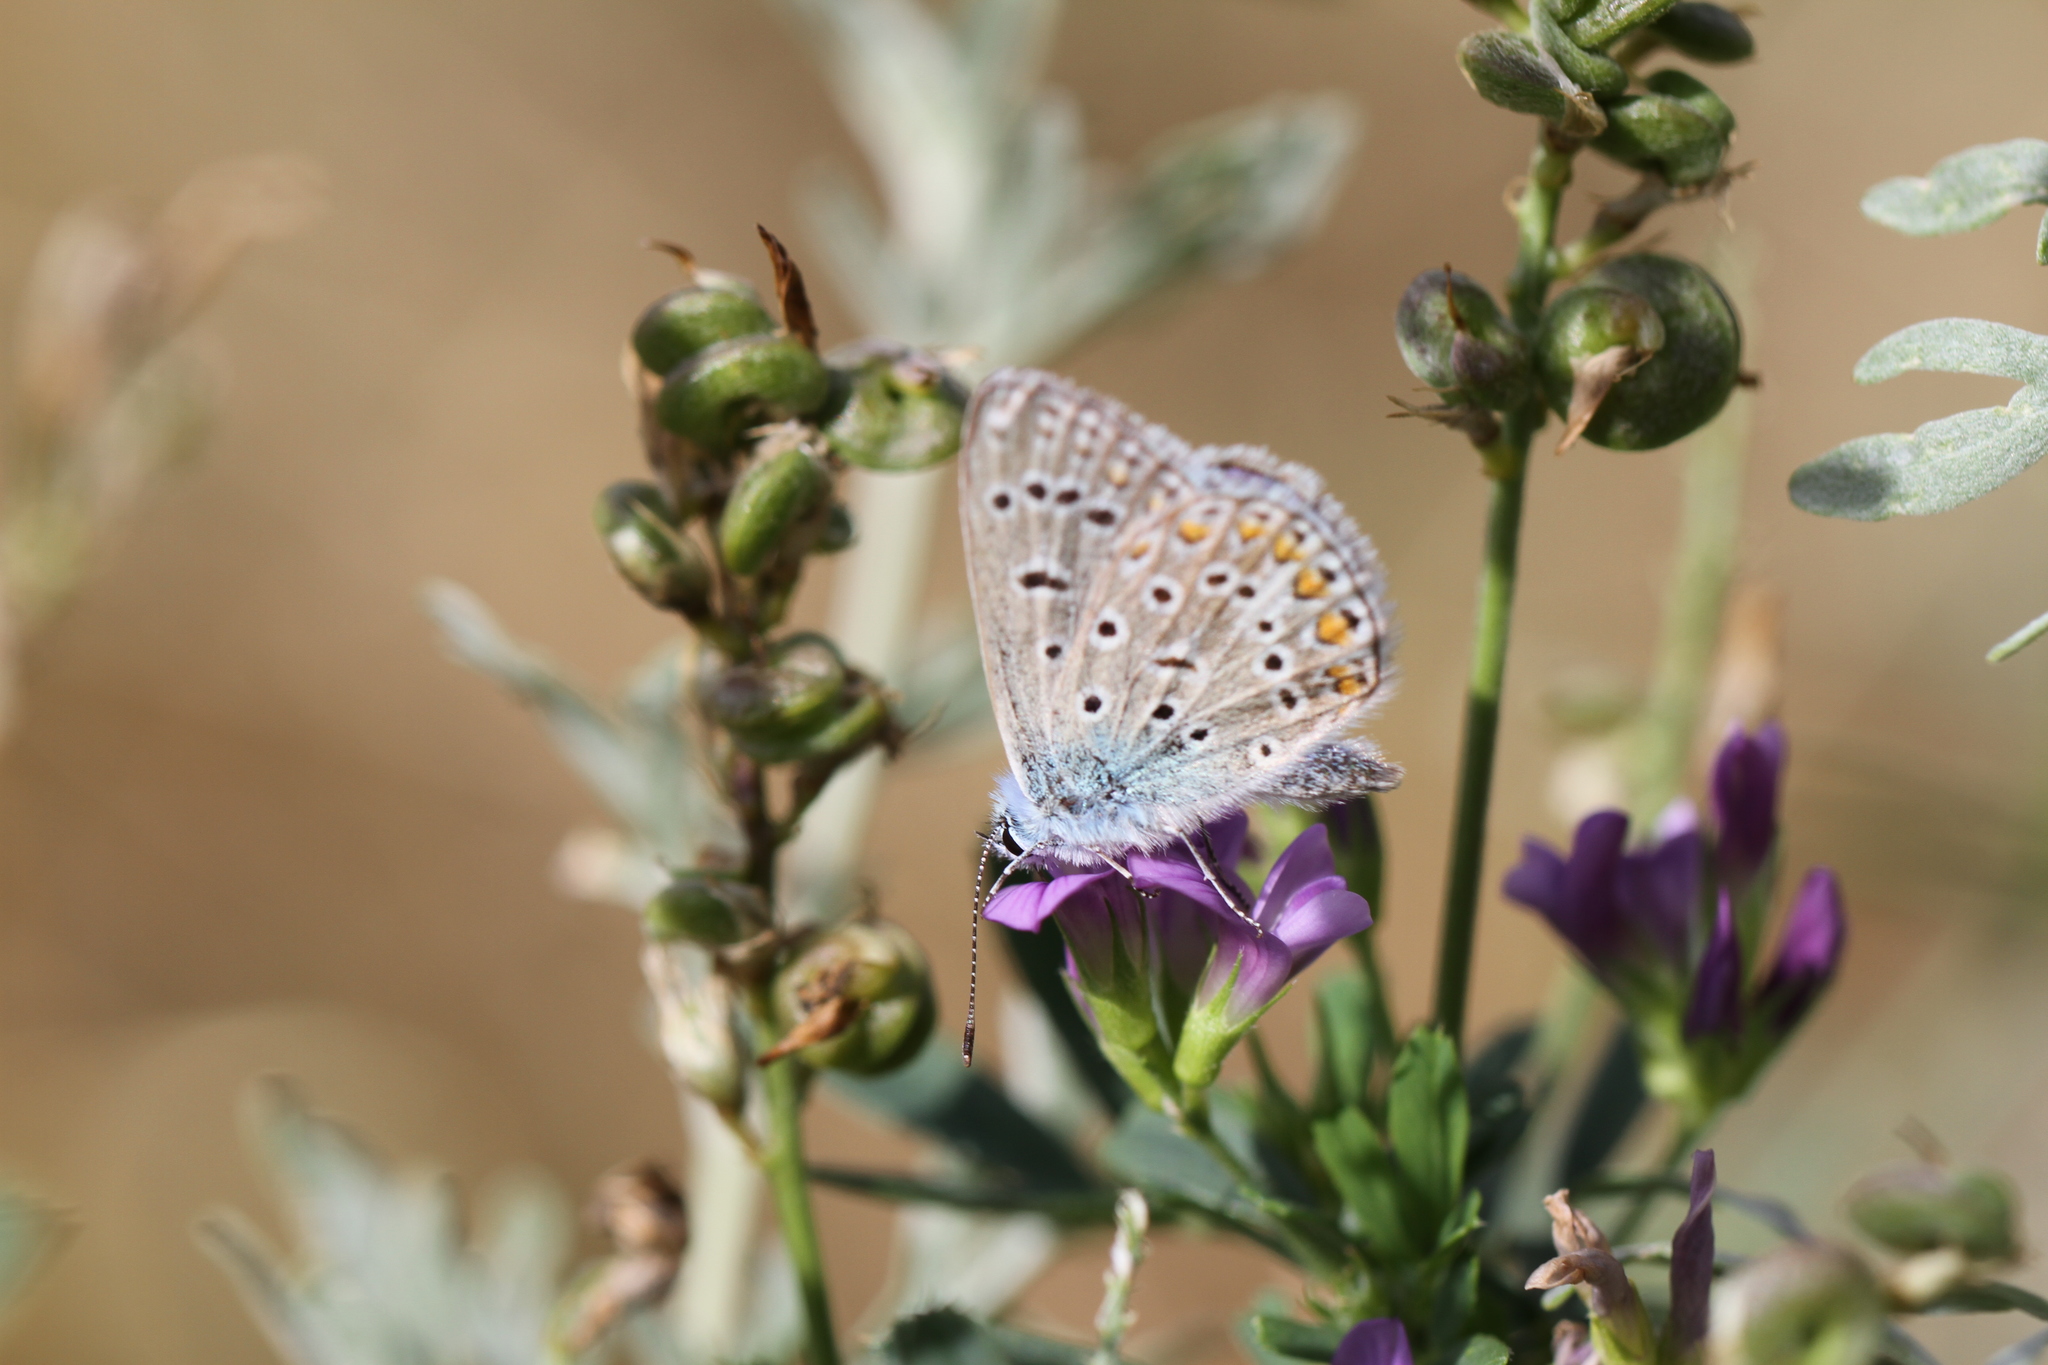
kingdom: Animalia
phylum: Arthropoda
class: Insecta
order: Lepidoptera
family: Lycaenidae
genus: Polyommatus
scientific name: Polyommatus icarus
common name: Common blue
